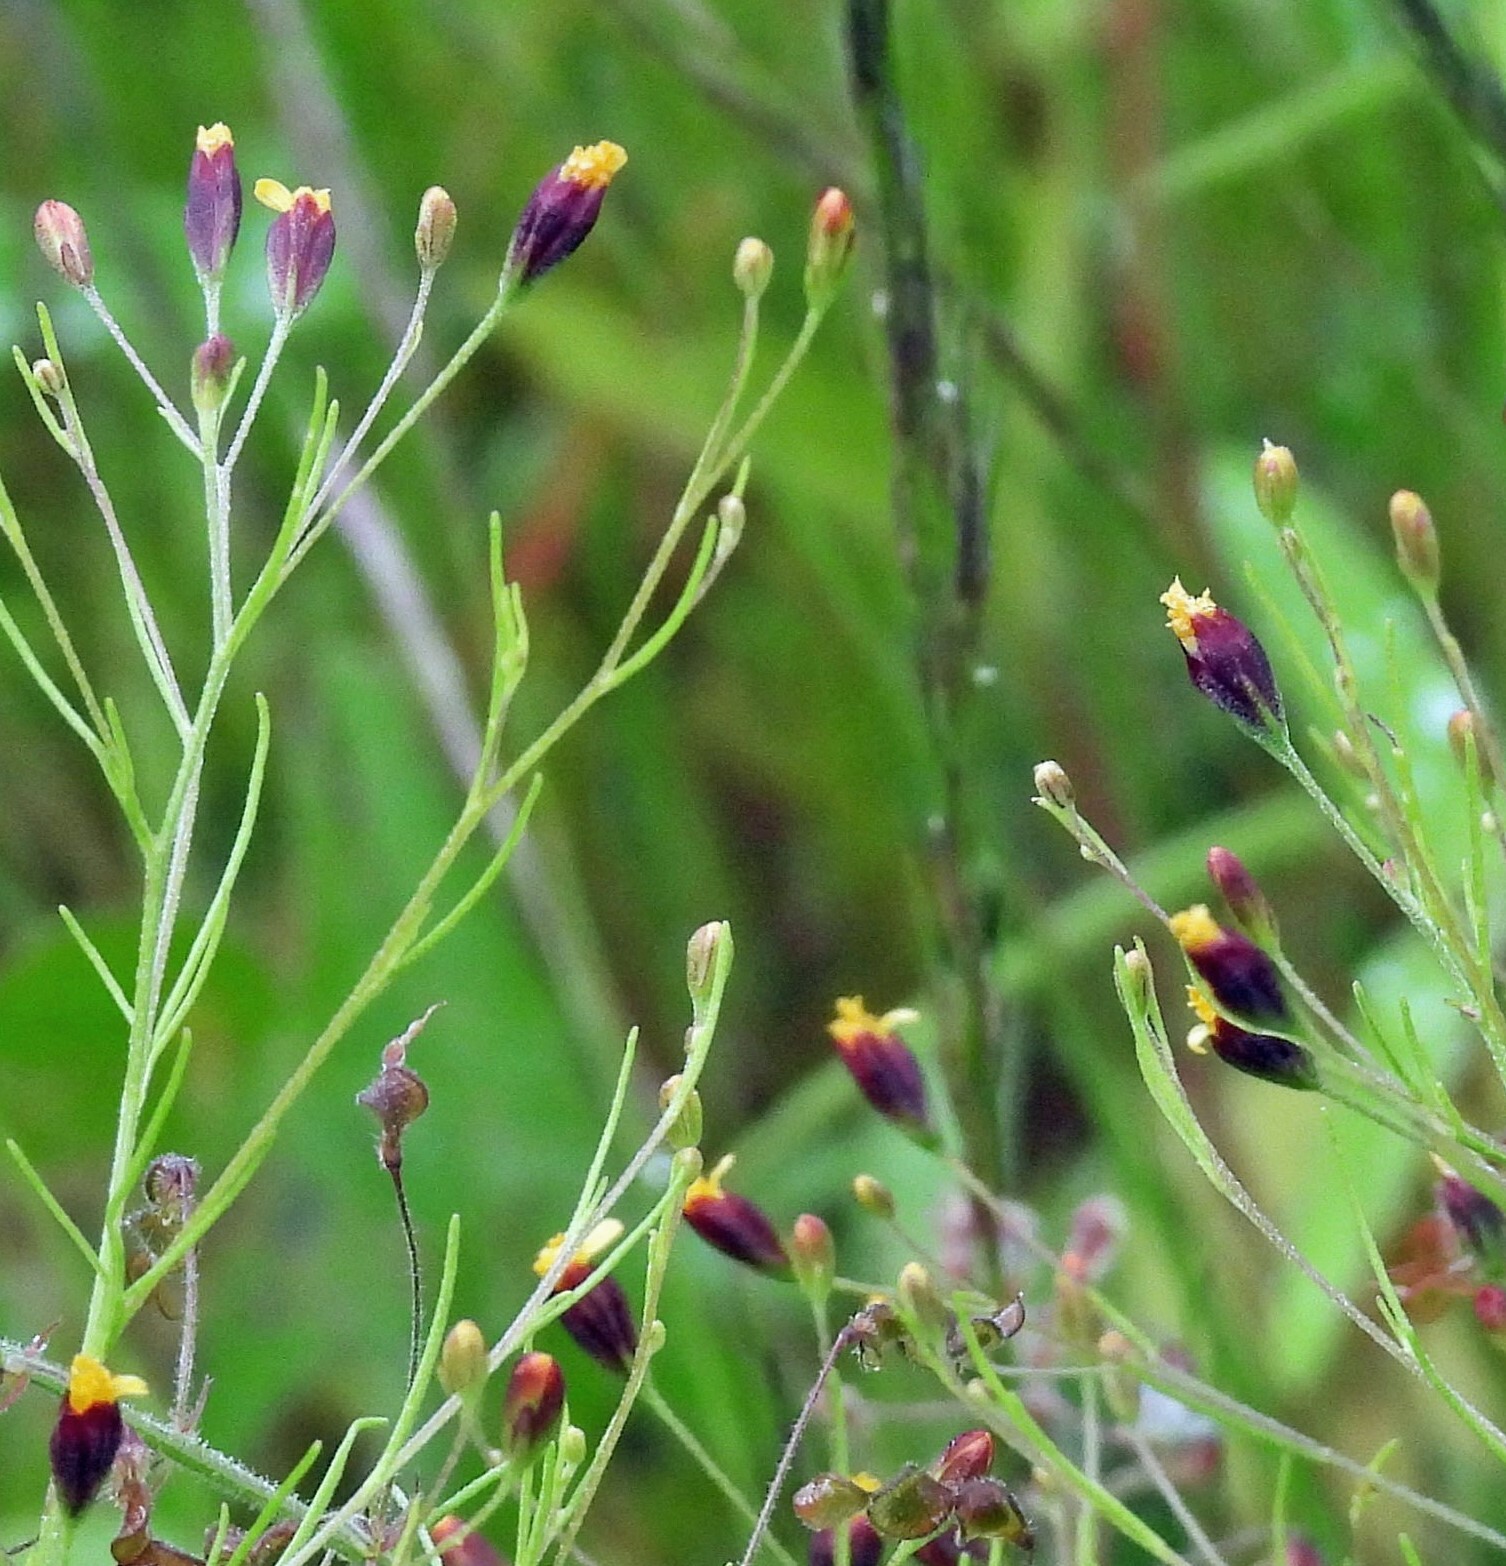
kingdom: Plantae
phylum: Tracheophyta
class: Magnoliopsida
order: Asterales
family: Asteraceae
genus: Schkuhria
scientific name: Schkuhria pinnata
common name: Dwarf marigold
